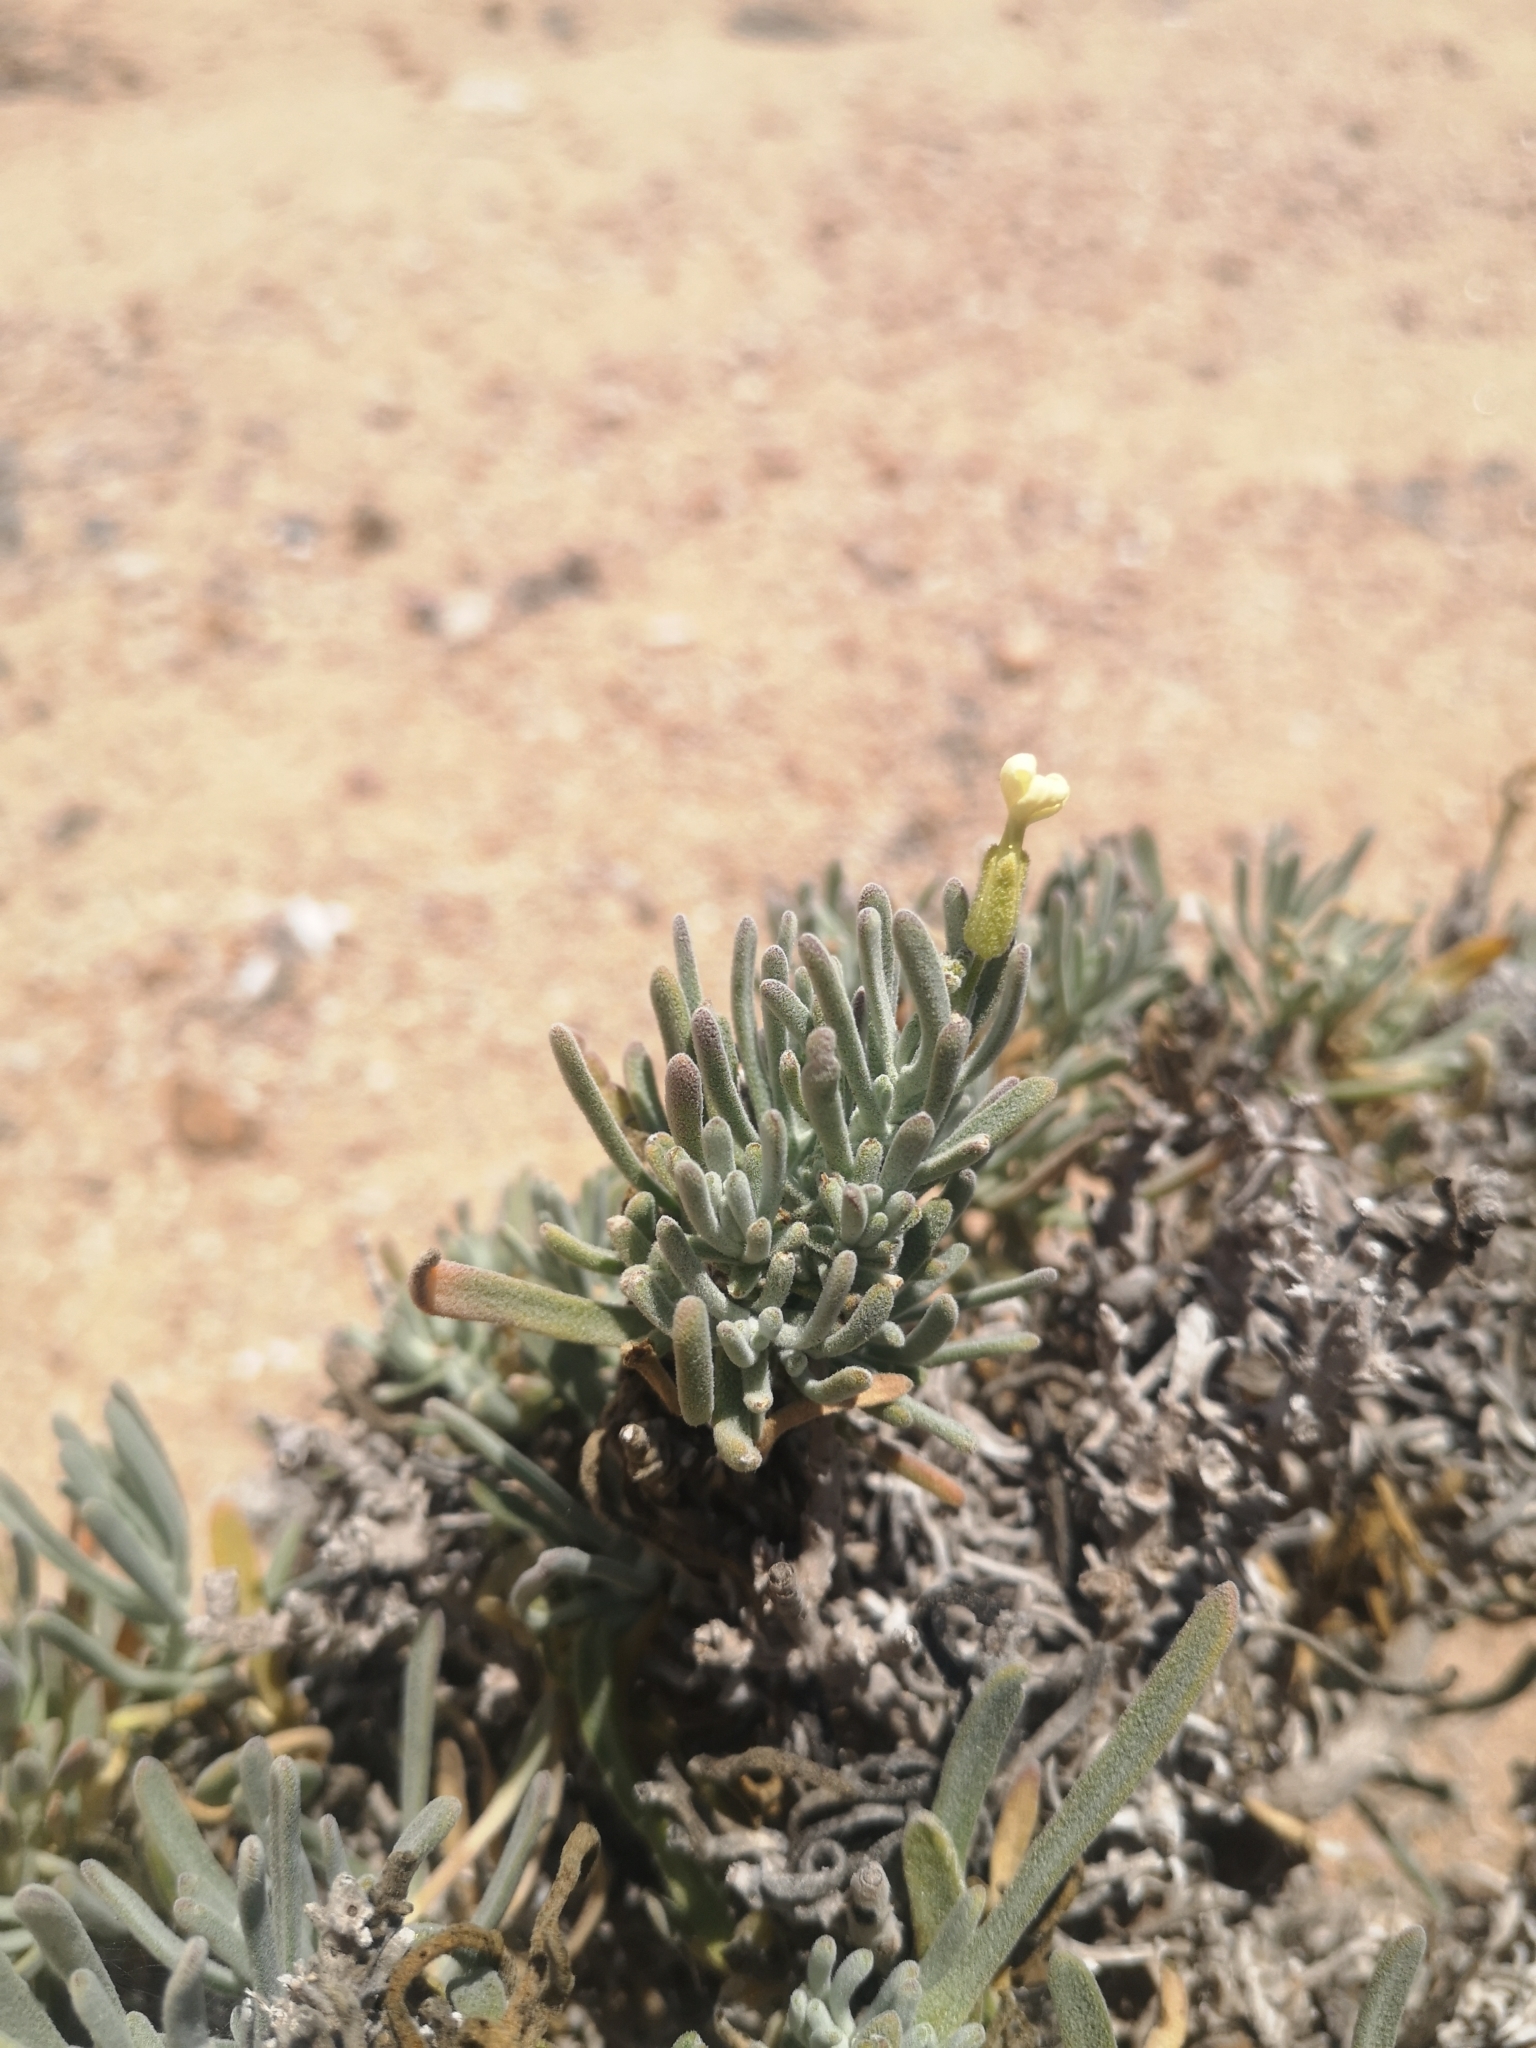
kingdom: Plantae
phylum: Tracheophyta
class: Magnoliopsida
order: Brassicales
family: Brassicaceae
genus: Mathewsia
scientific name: Mathewsia incana
